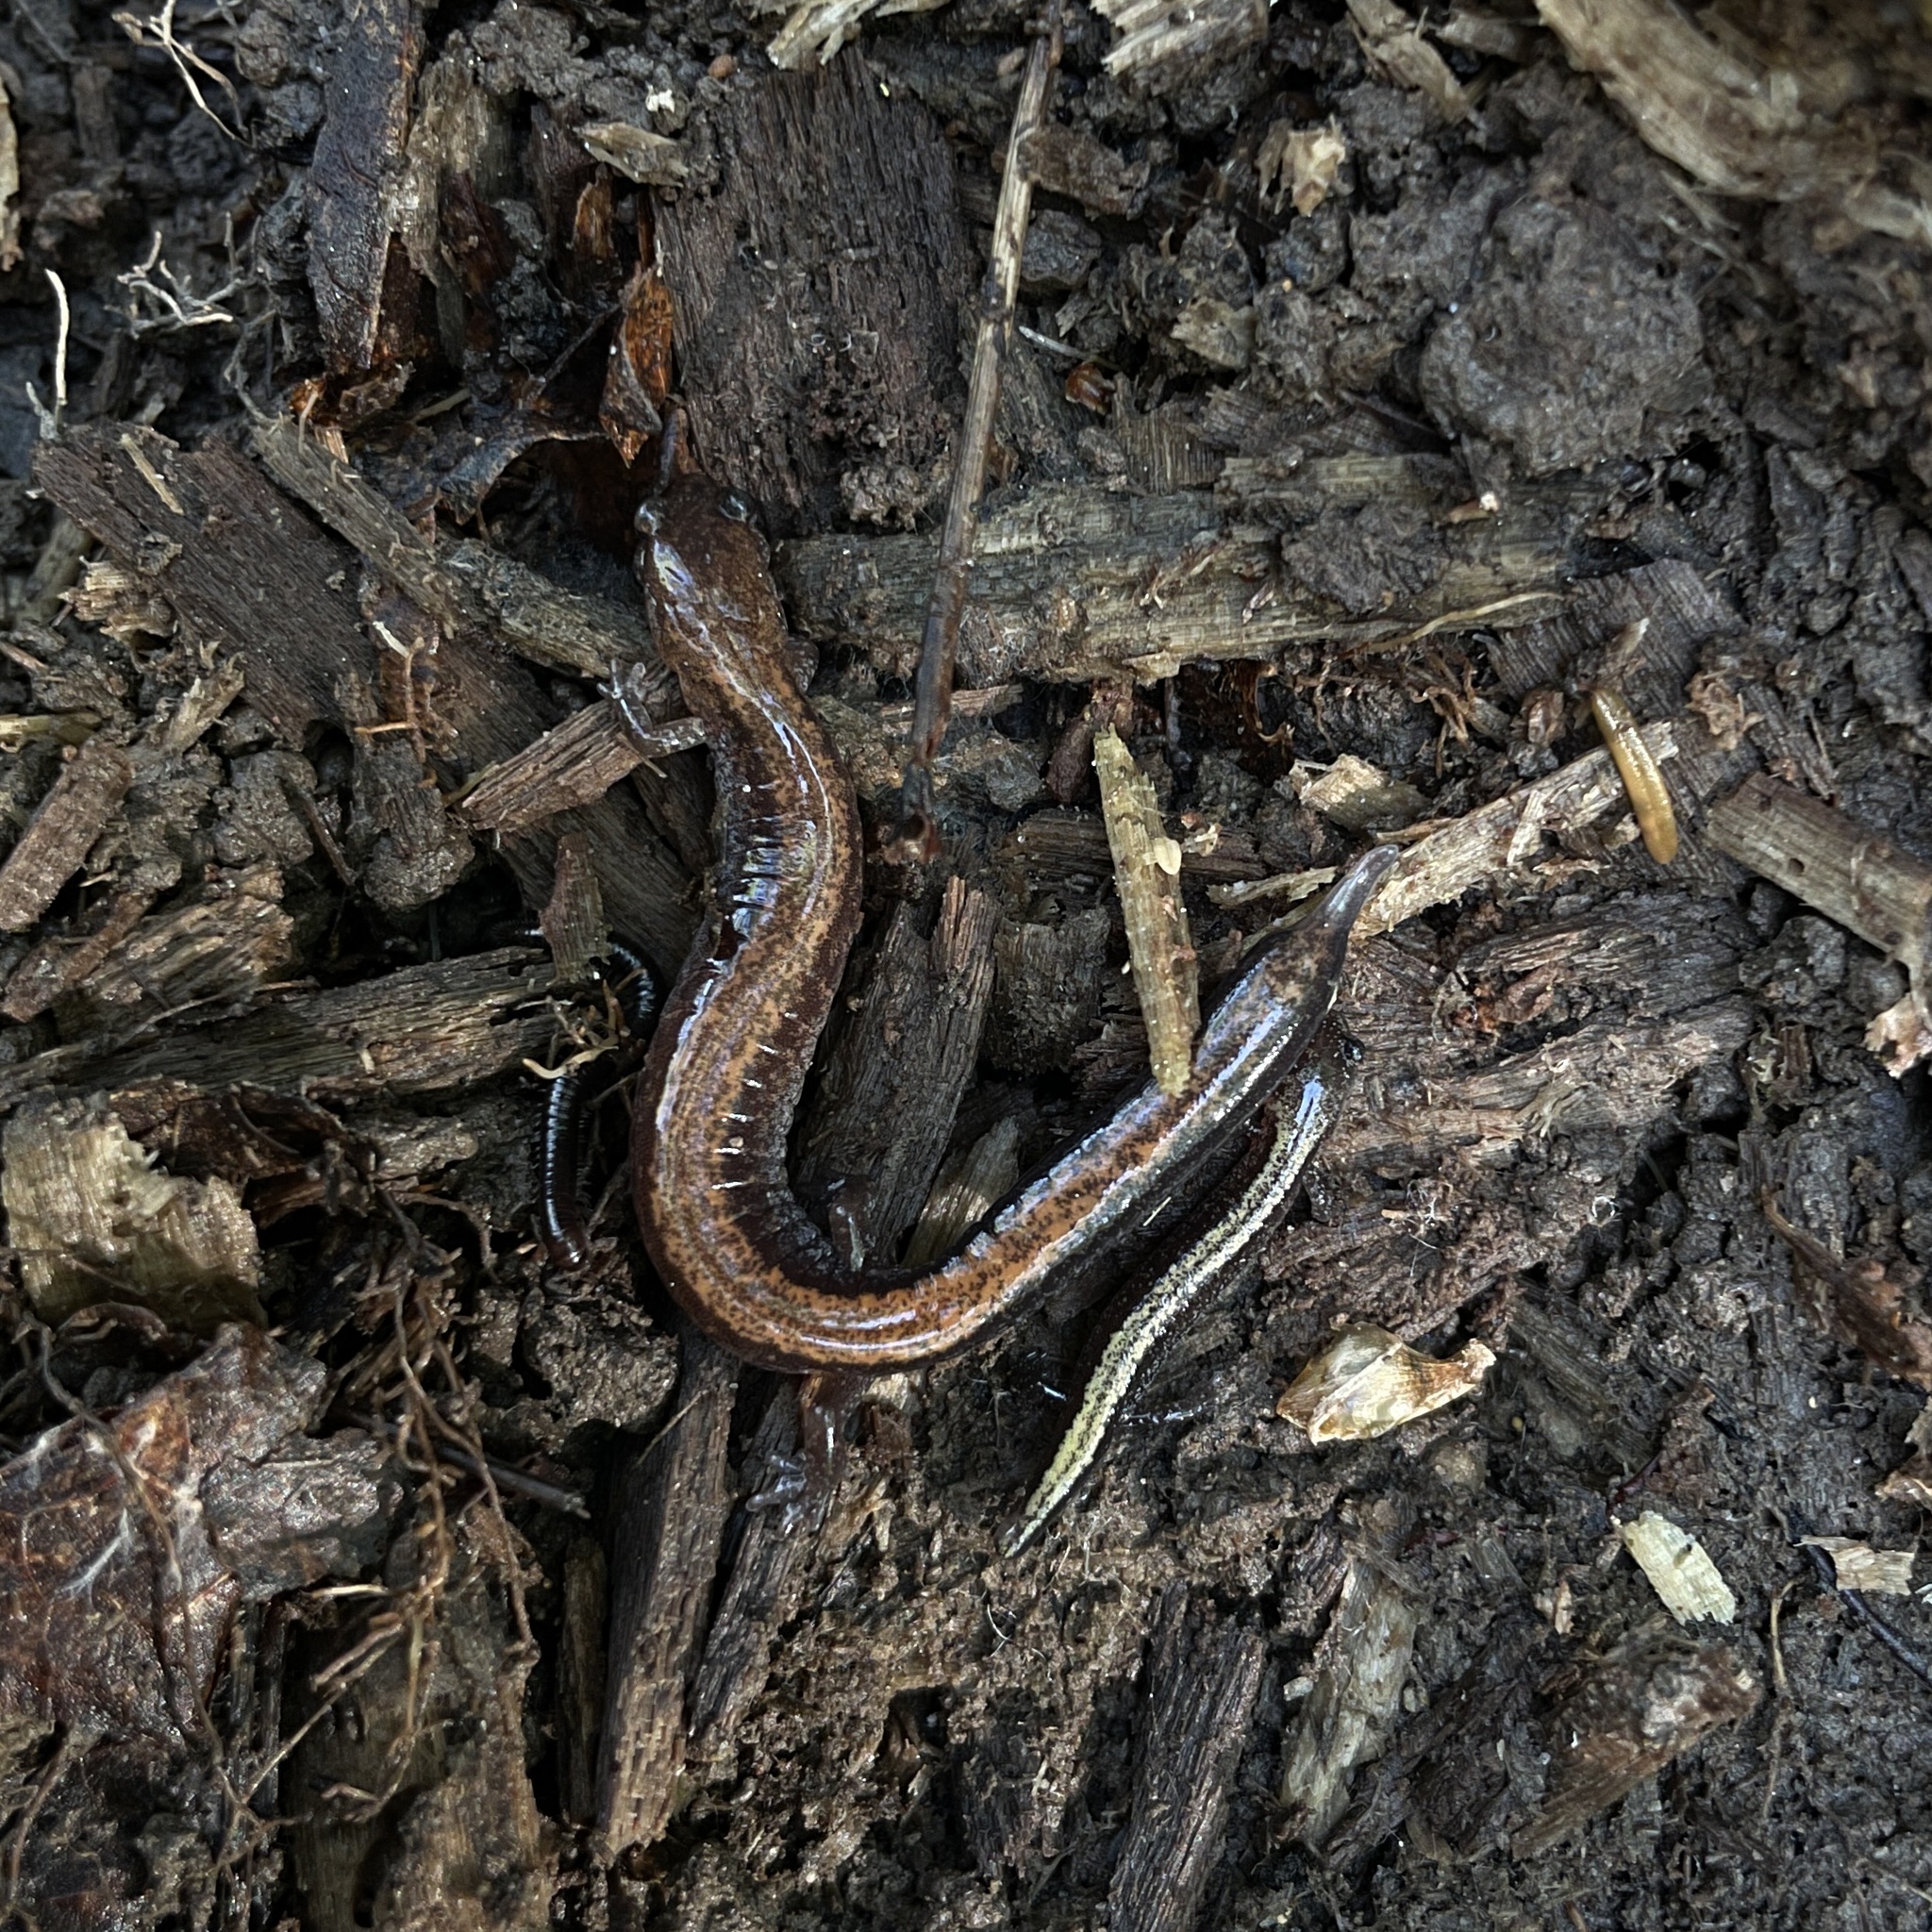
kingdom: Animalia
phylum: Chordata
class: Amphibia
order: Caudata
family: Plethodontidae
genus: Plethodon
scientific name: Plethodon cinereus
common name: Redback salamander
